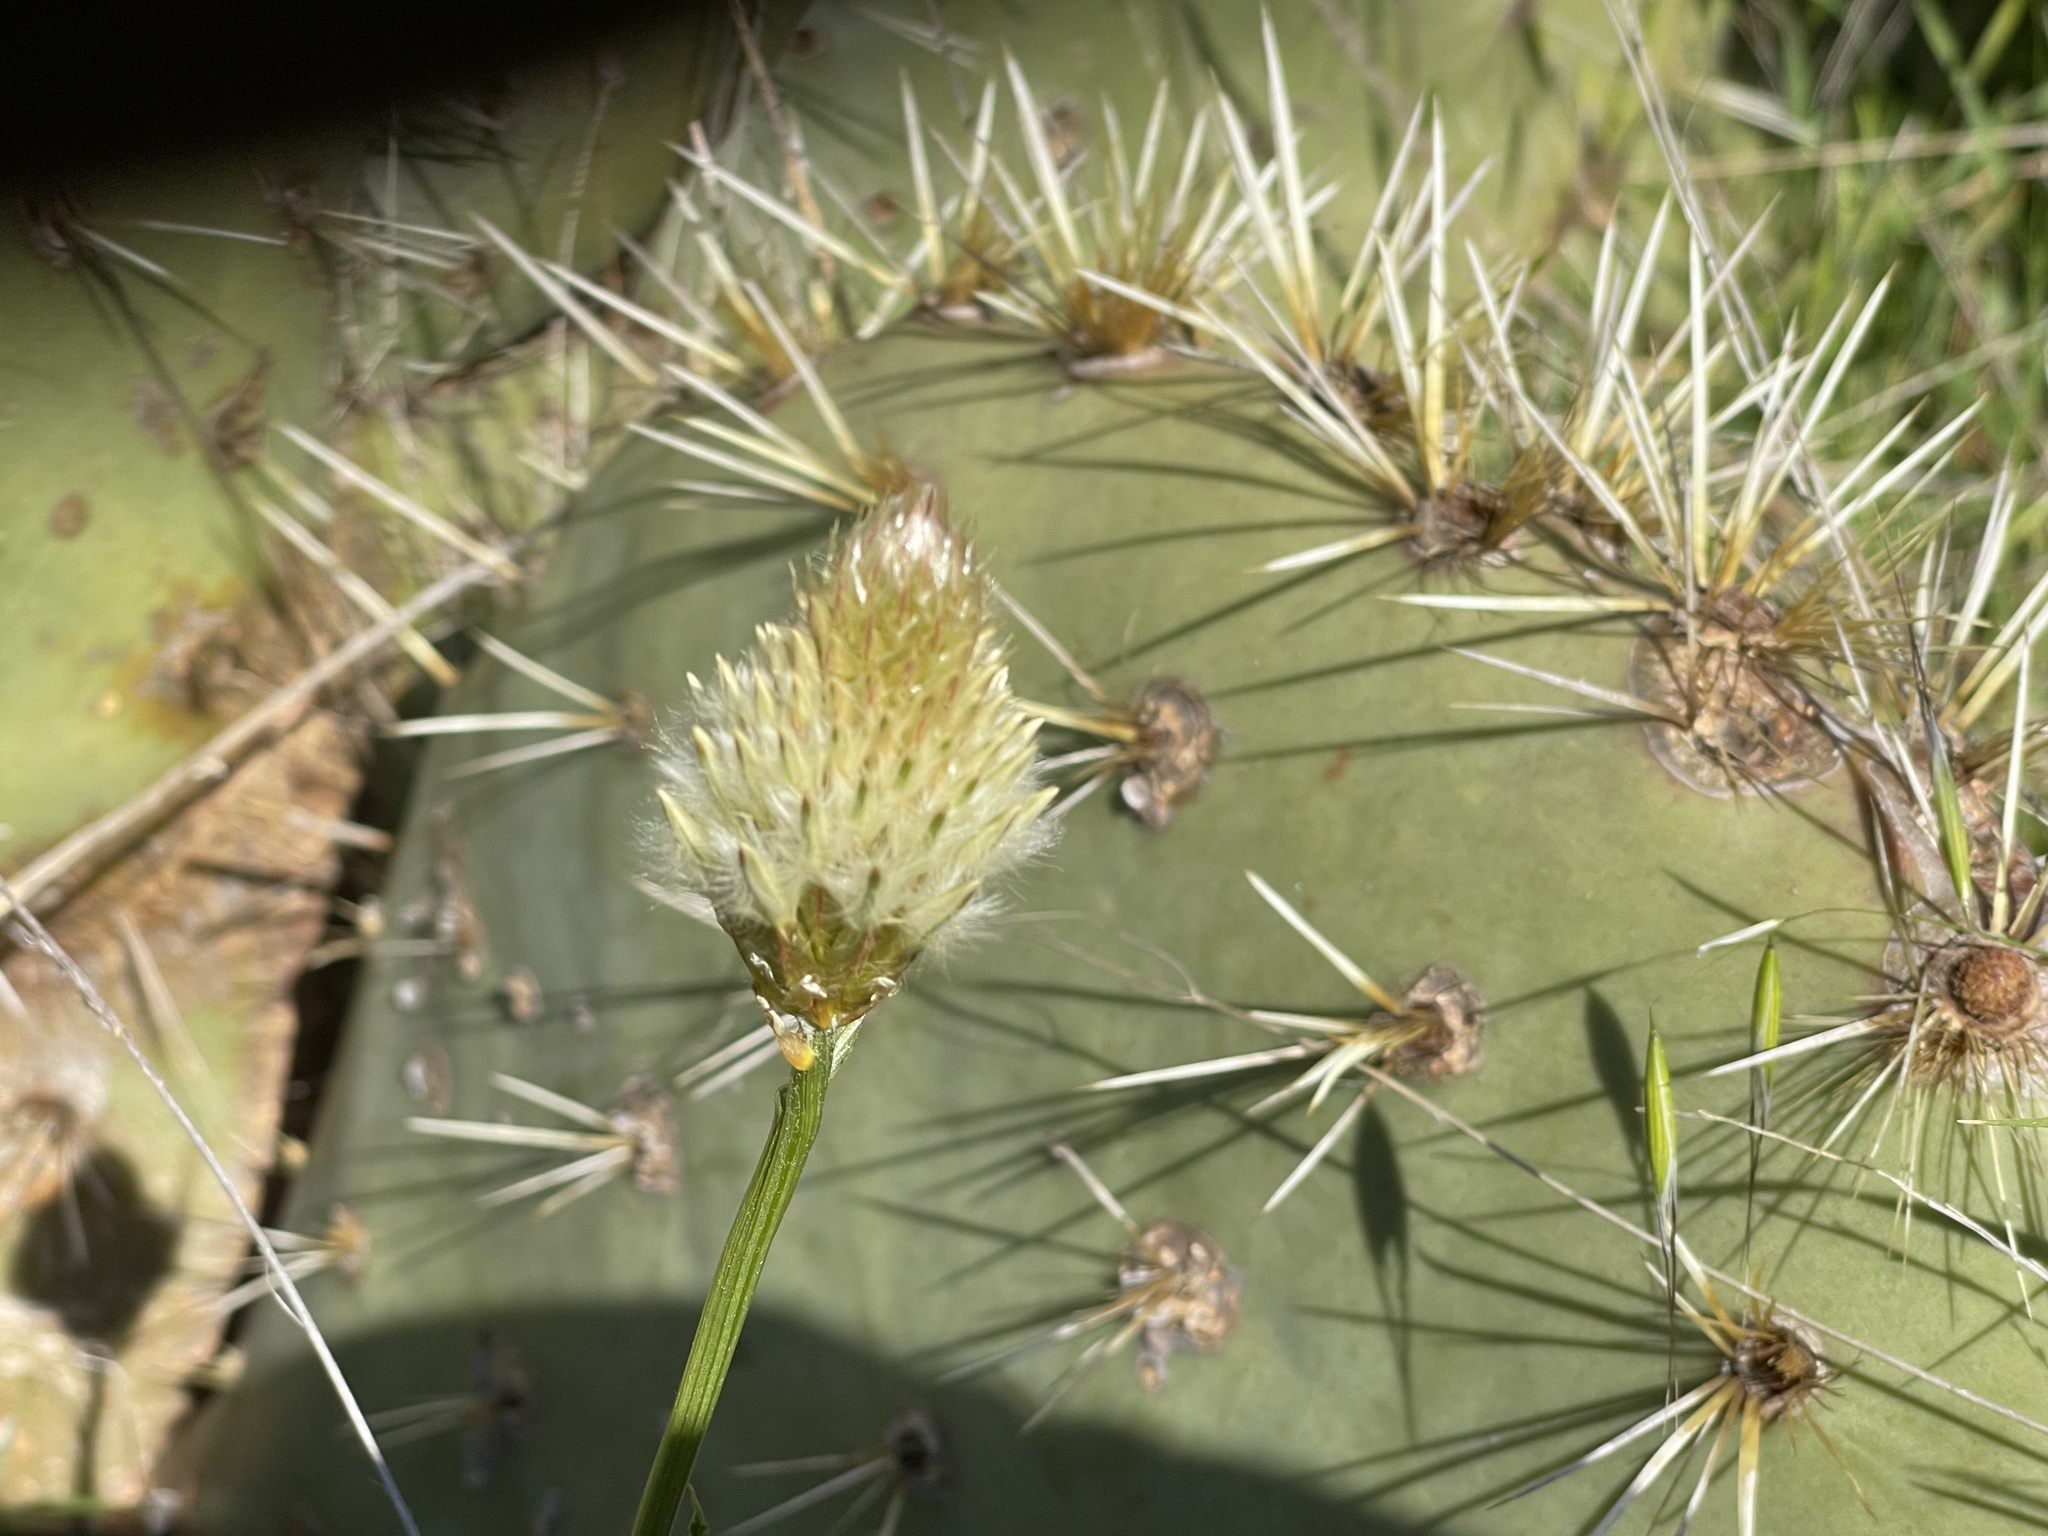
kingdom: Plantae
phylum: Tracheophyta
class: Magnoliopsida
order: Caryophyllales
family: Amaranthaceae
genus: Ptilotus
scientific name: Ptilotus macrocephalus
